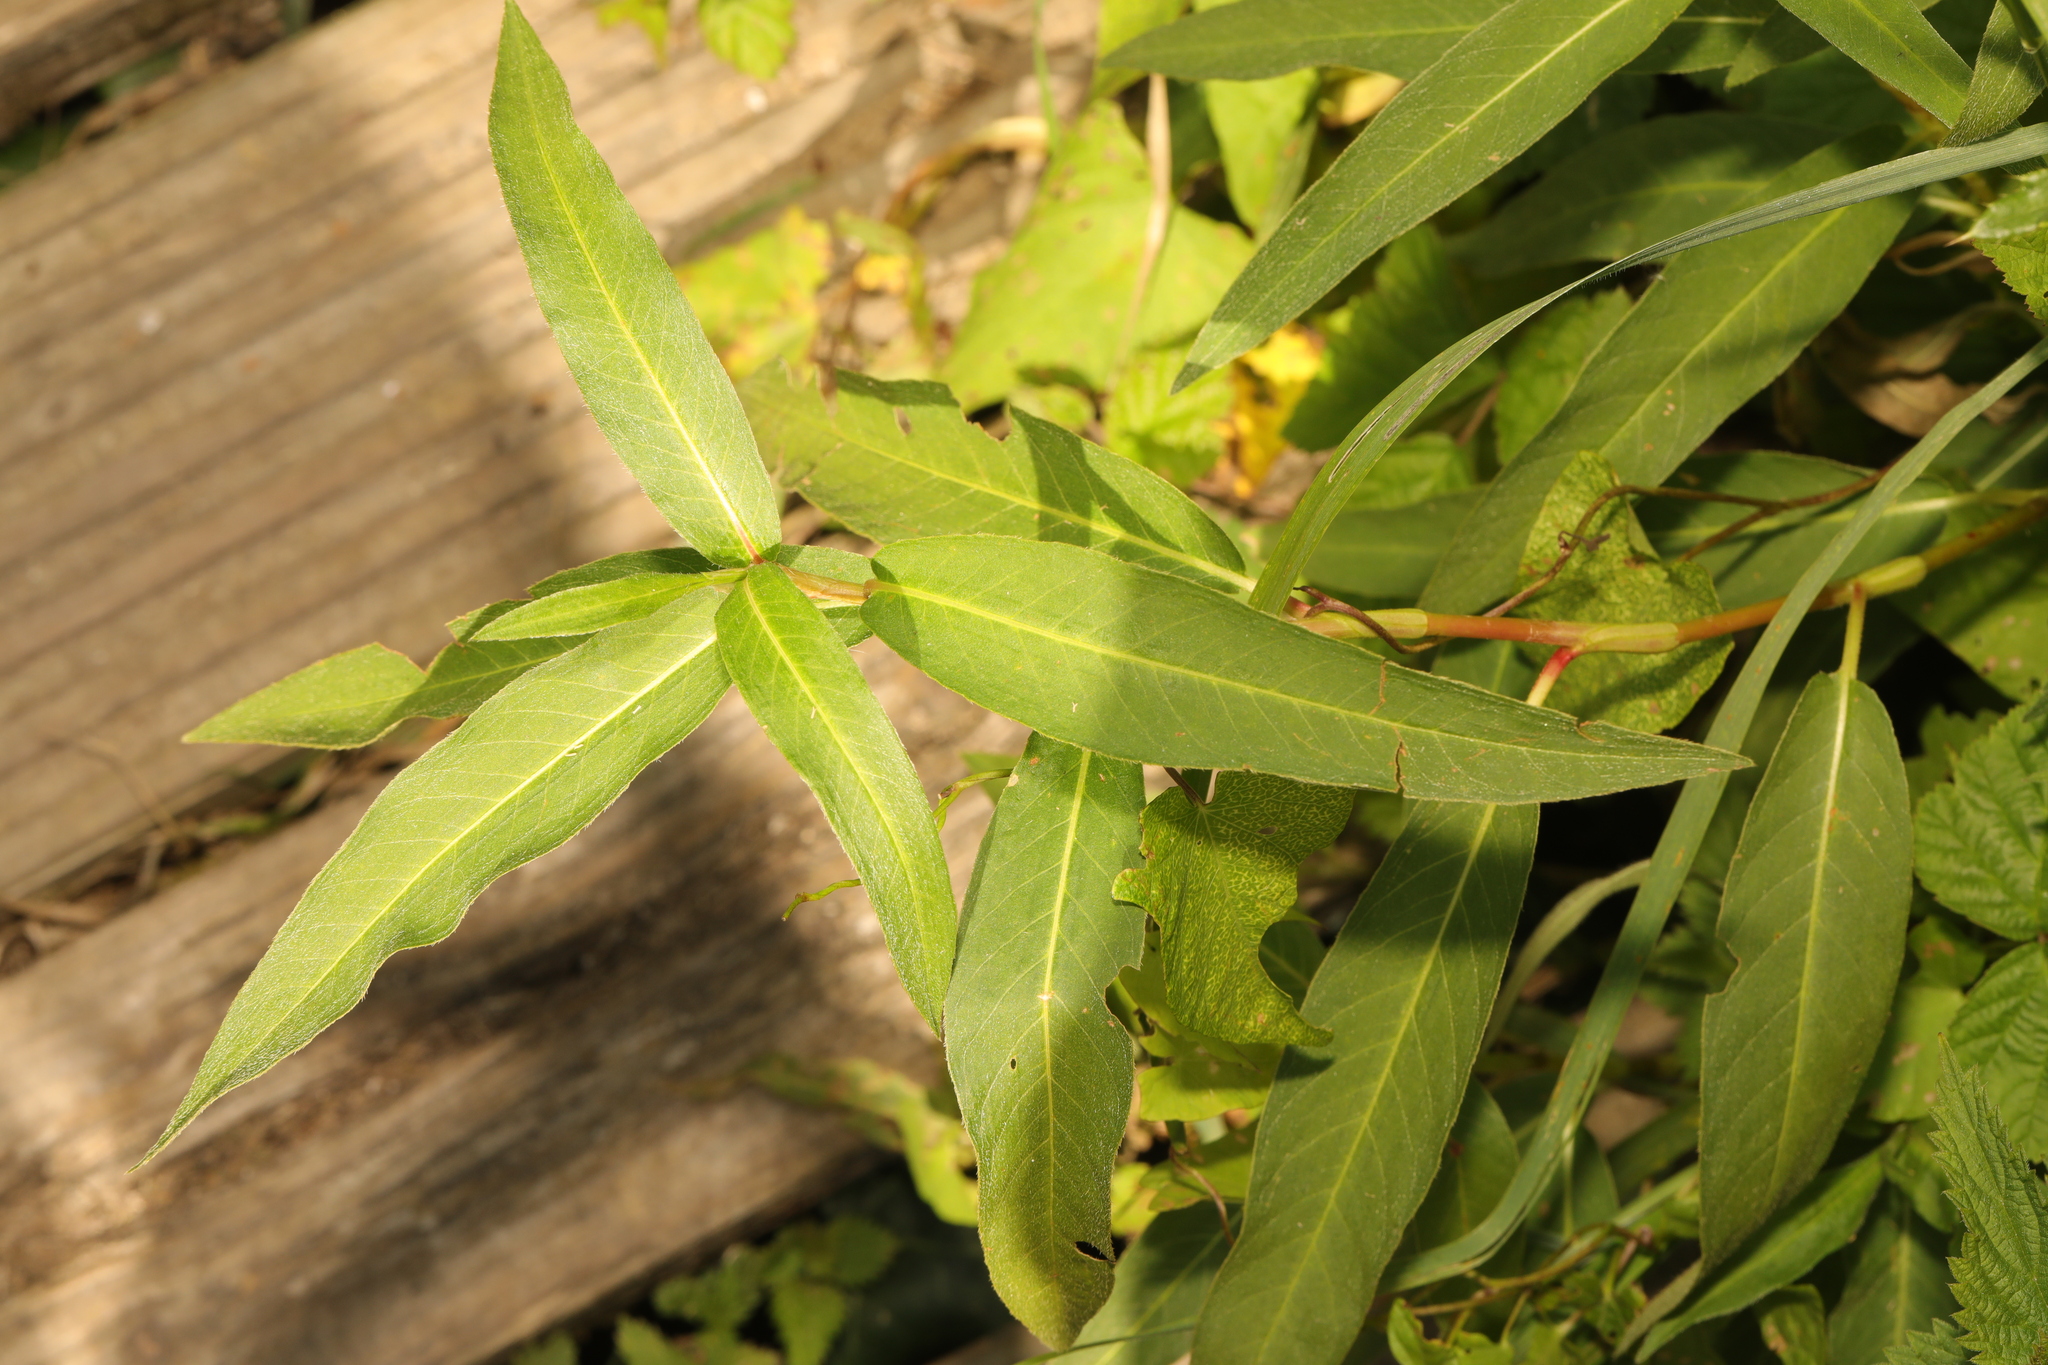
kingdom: Plantae
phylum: Tracheophyta
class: Magnoliopsida
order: Caryophyllales
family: Polygonaceae
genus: Persicaria
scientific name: Persicaria amphibia
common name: Amphibious bistort
